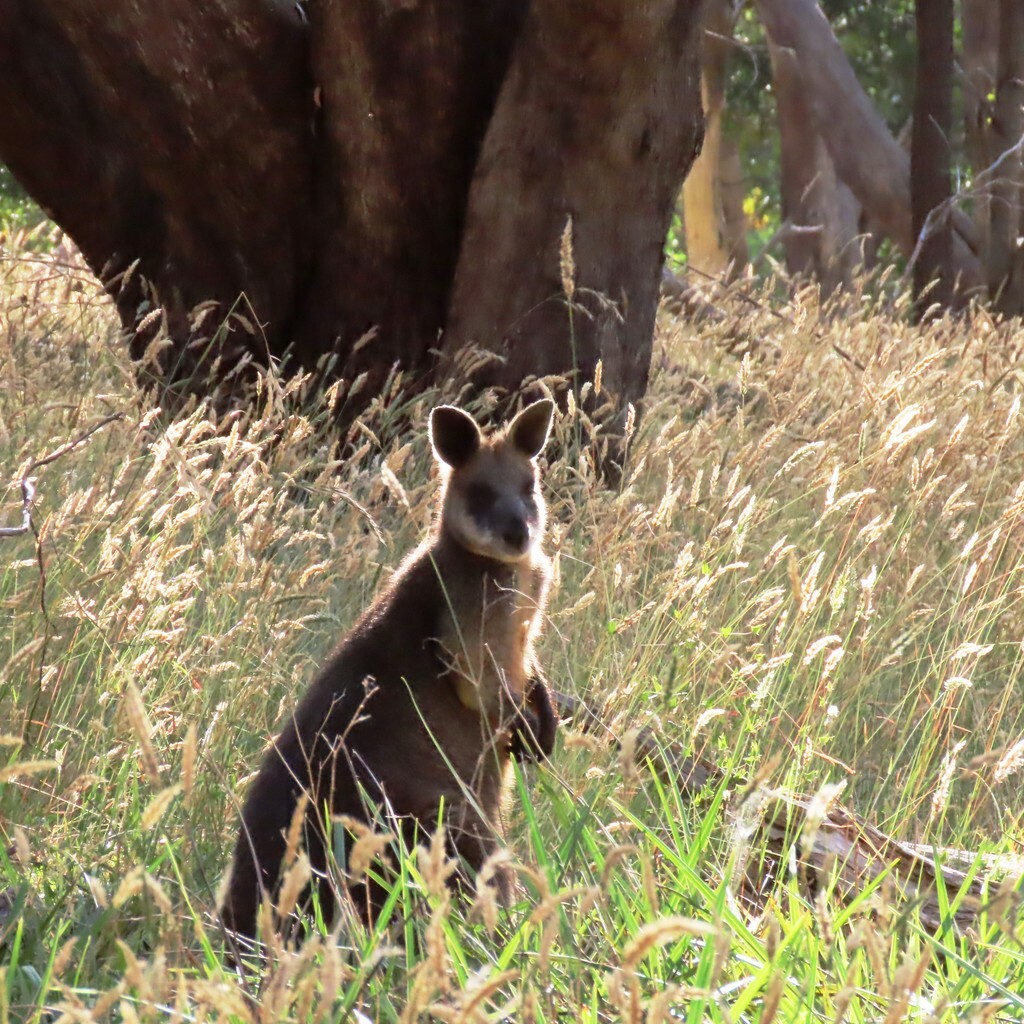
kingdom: Animalia
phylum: Chordata
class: Mammalia
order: Diprotodontia
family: Macropodidae
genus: Wallabia
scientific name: Wallabia bicolor
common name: Swamp wallaby
